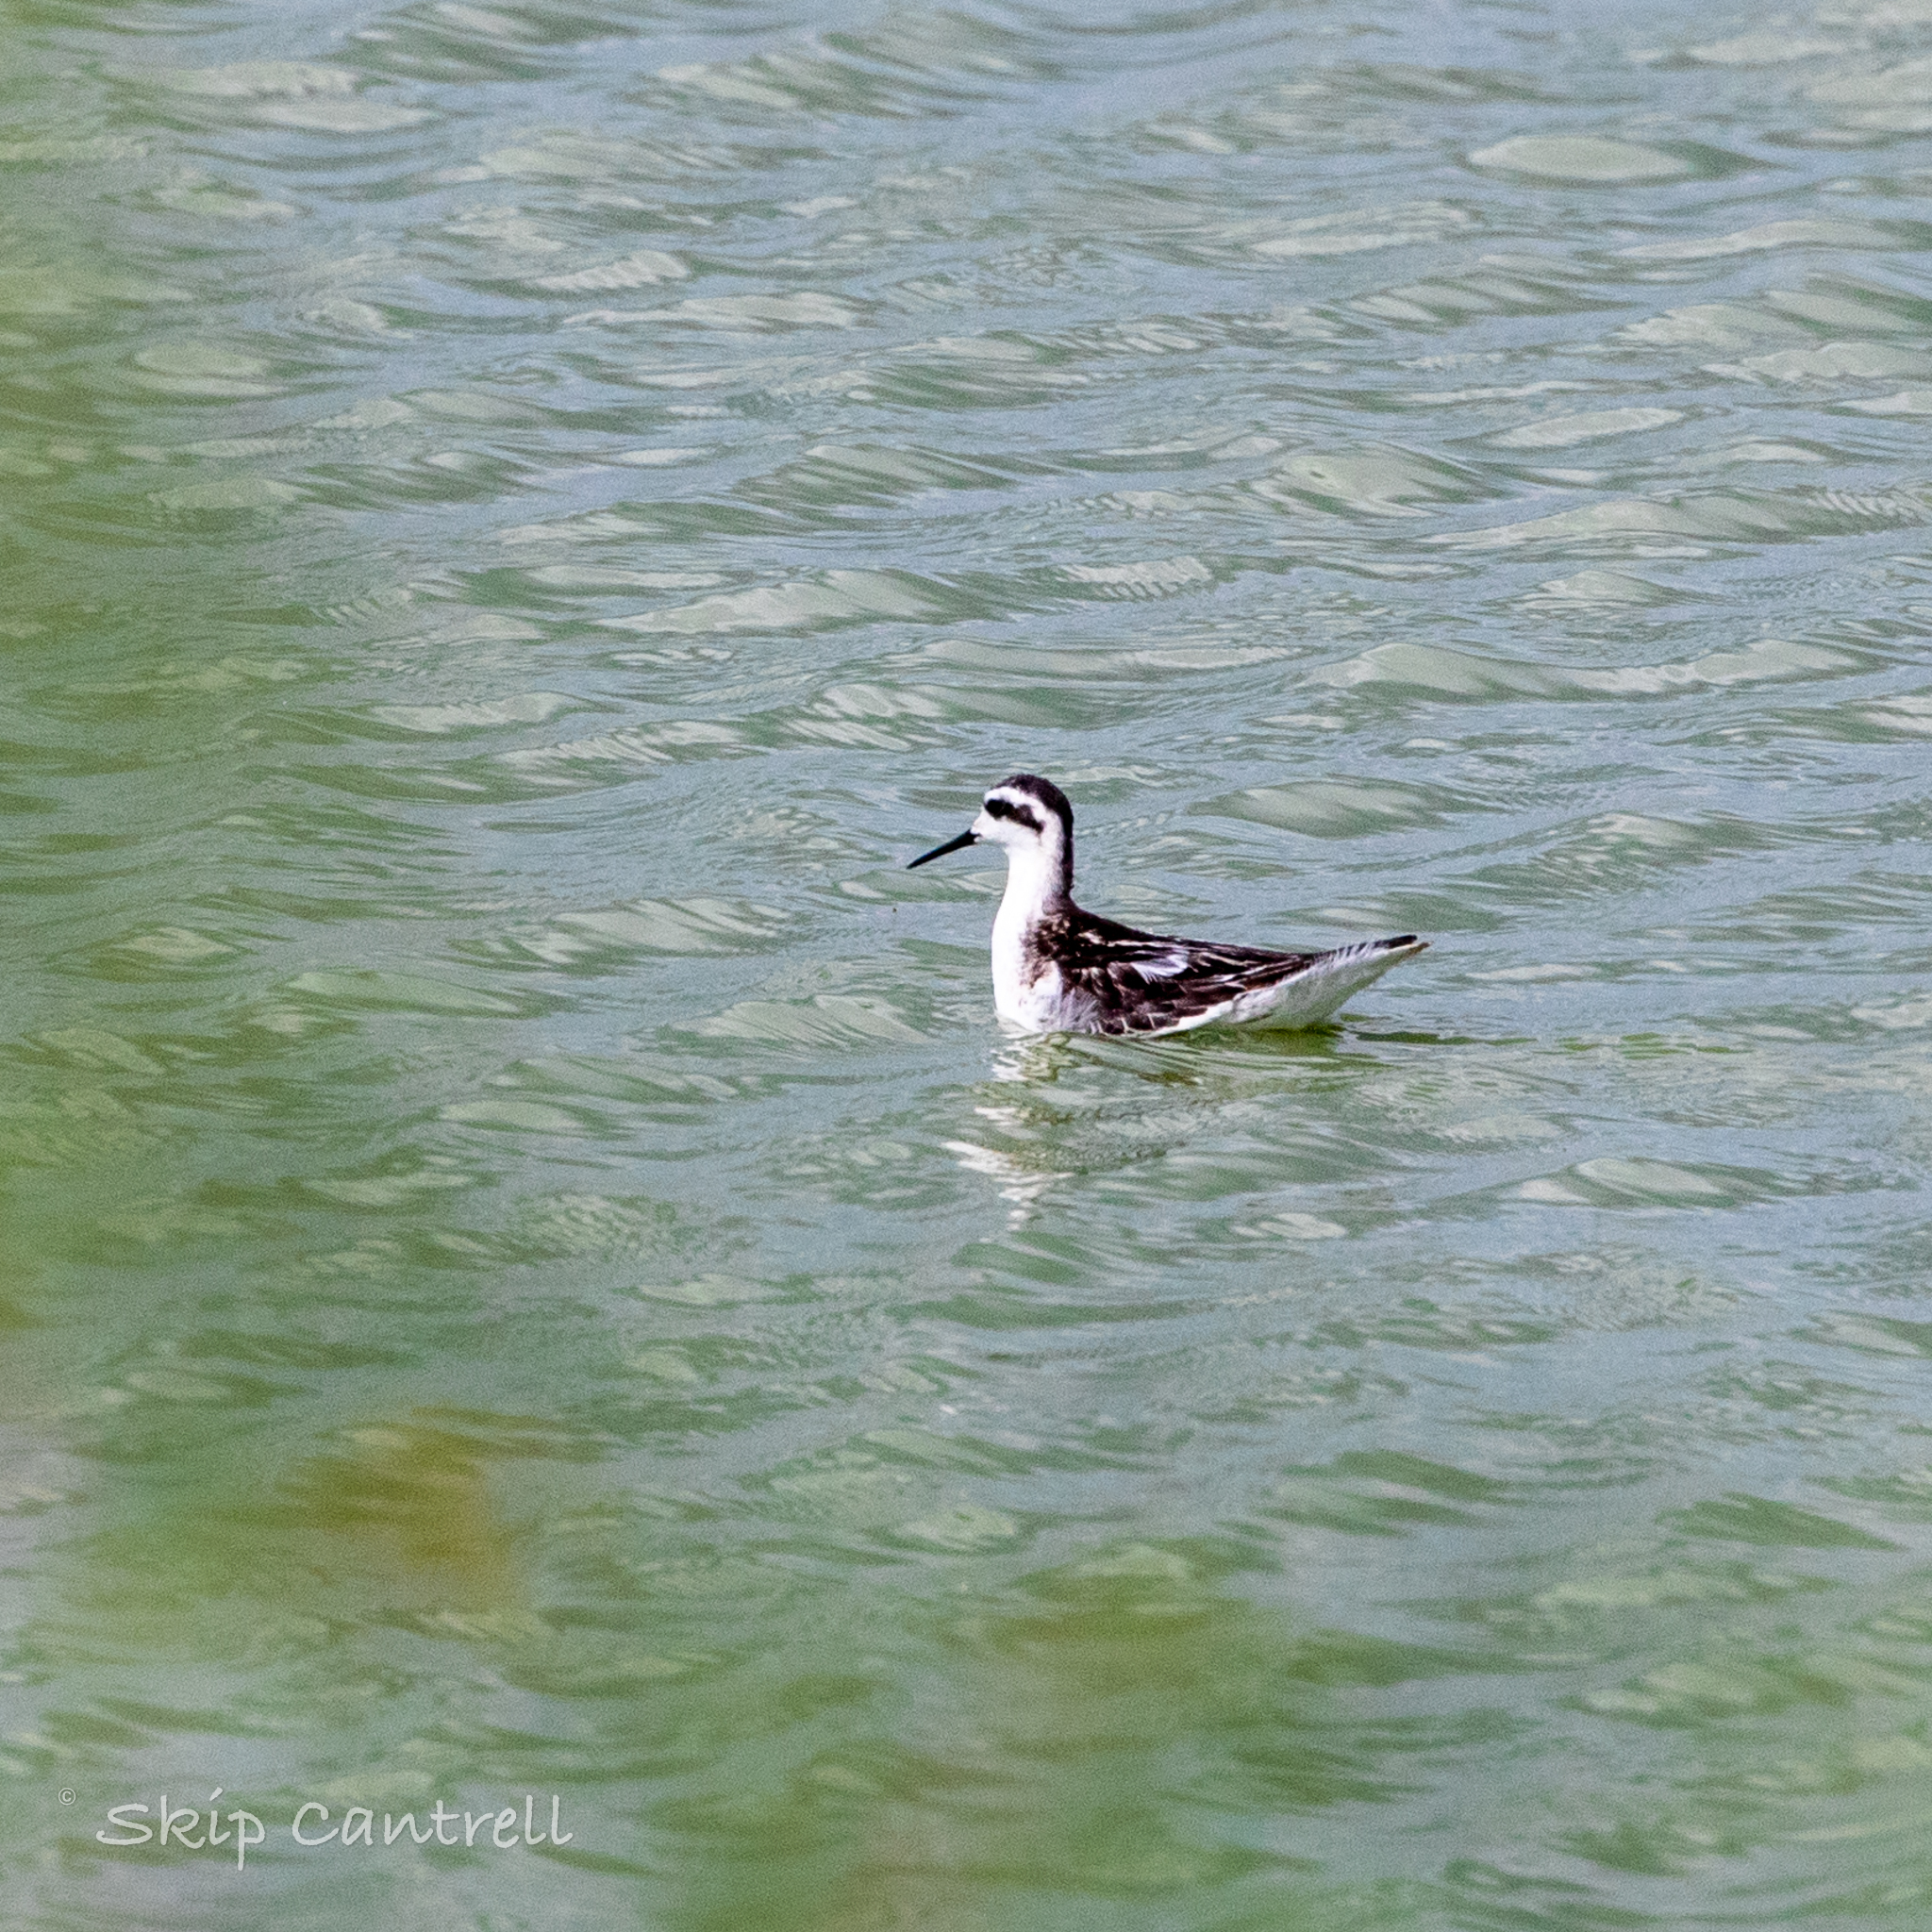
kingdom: Animalia
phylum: Chordata
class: Aves
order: Charadriiformes
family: Scolopacidae
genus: Phalaropus
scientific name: Phalaropus lobatus
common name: Red-necked phalarope
